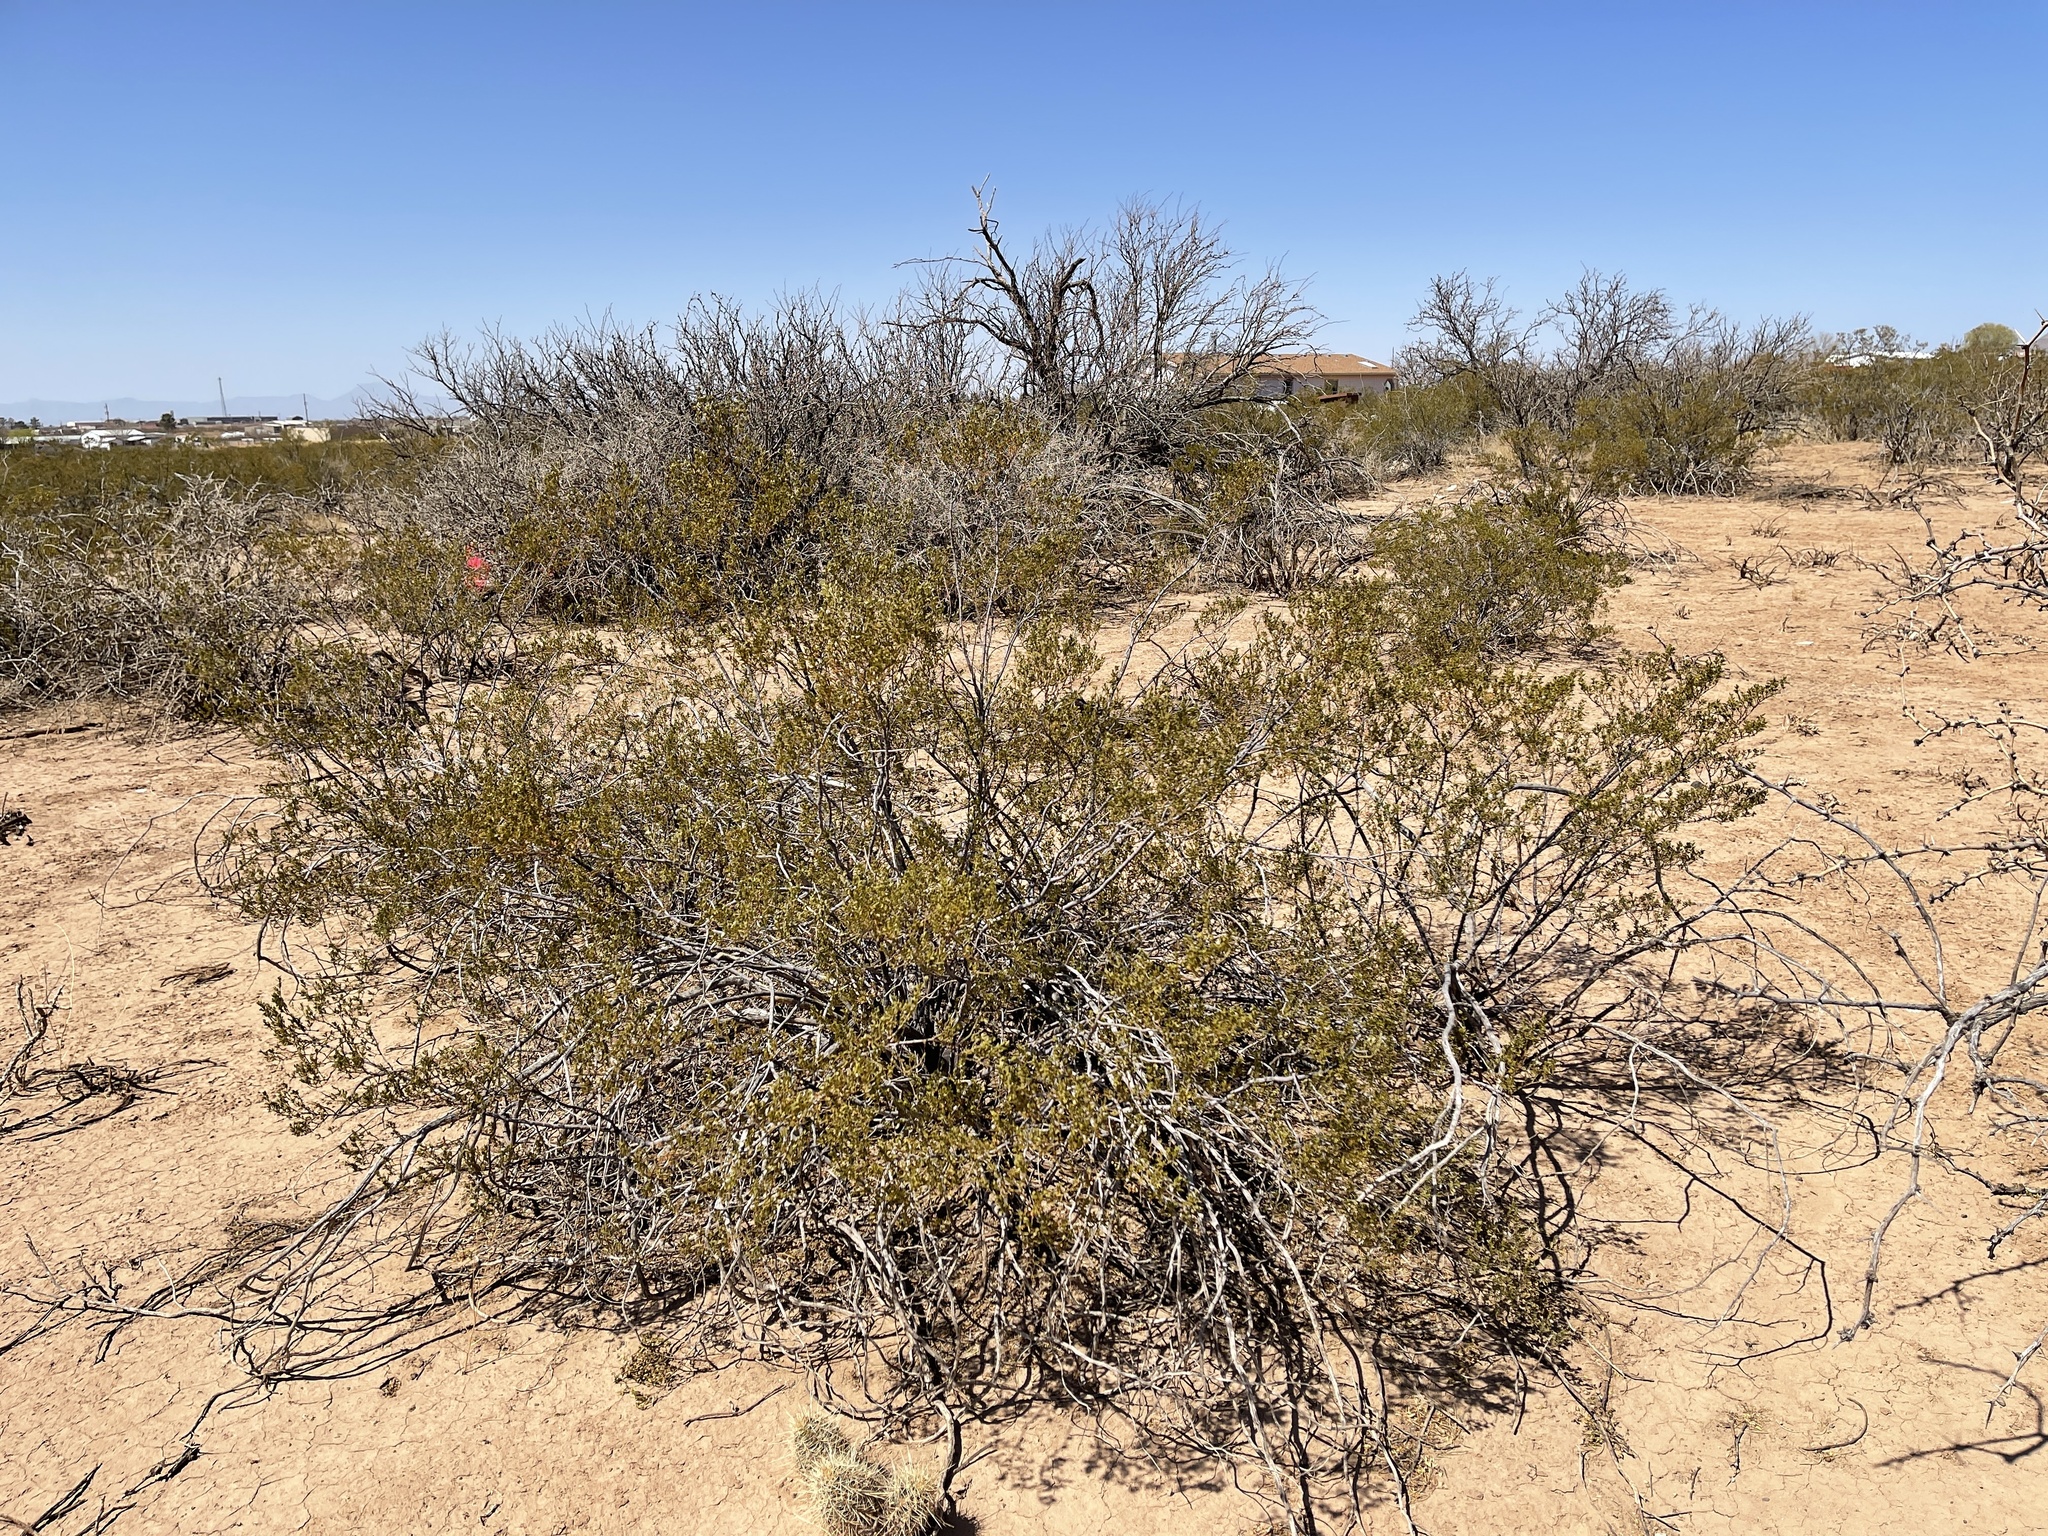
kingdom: Plantae
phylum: Tracheophyta
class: Magnoliopsida
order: Zygophyllales
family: Zygophyllaceae
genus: Larrea
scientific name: Larrea tridentata
